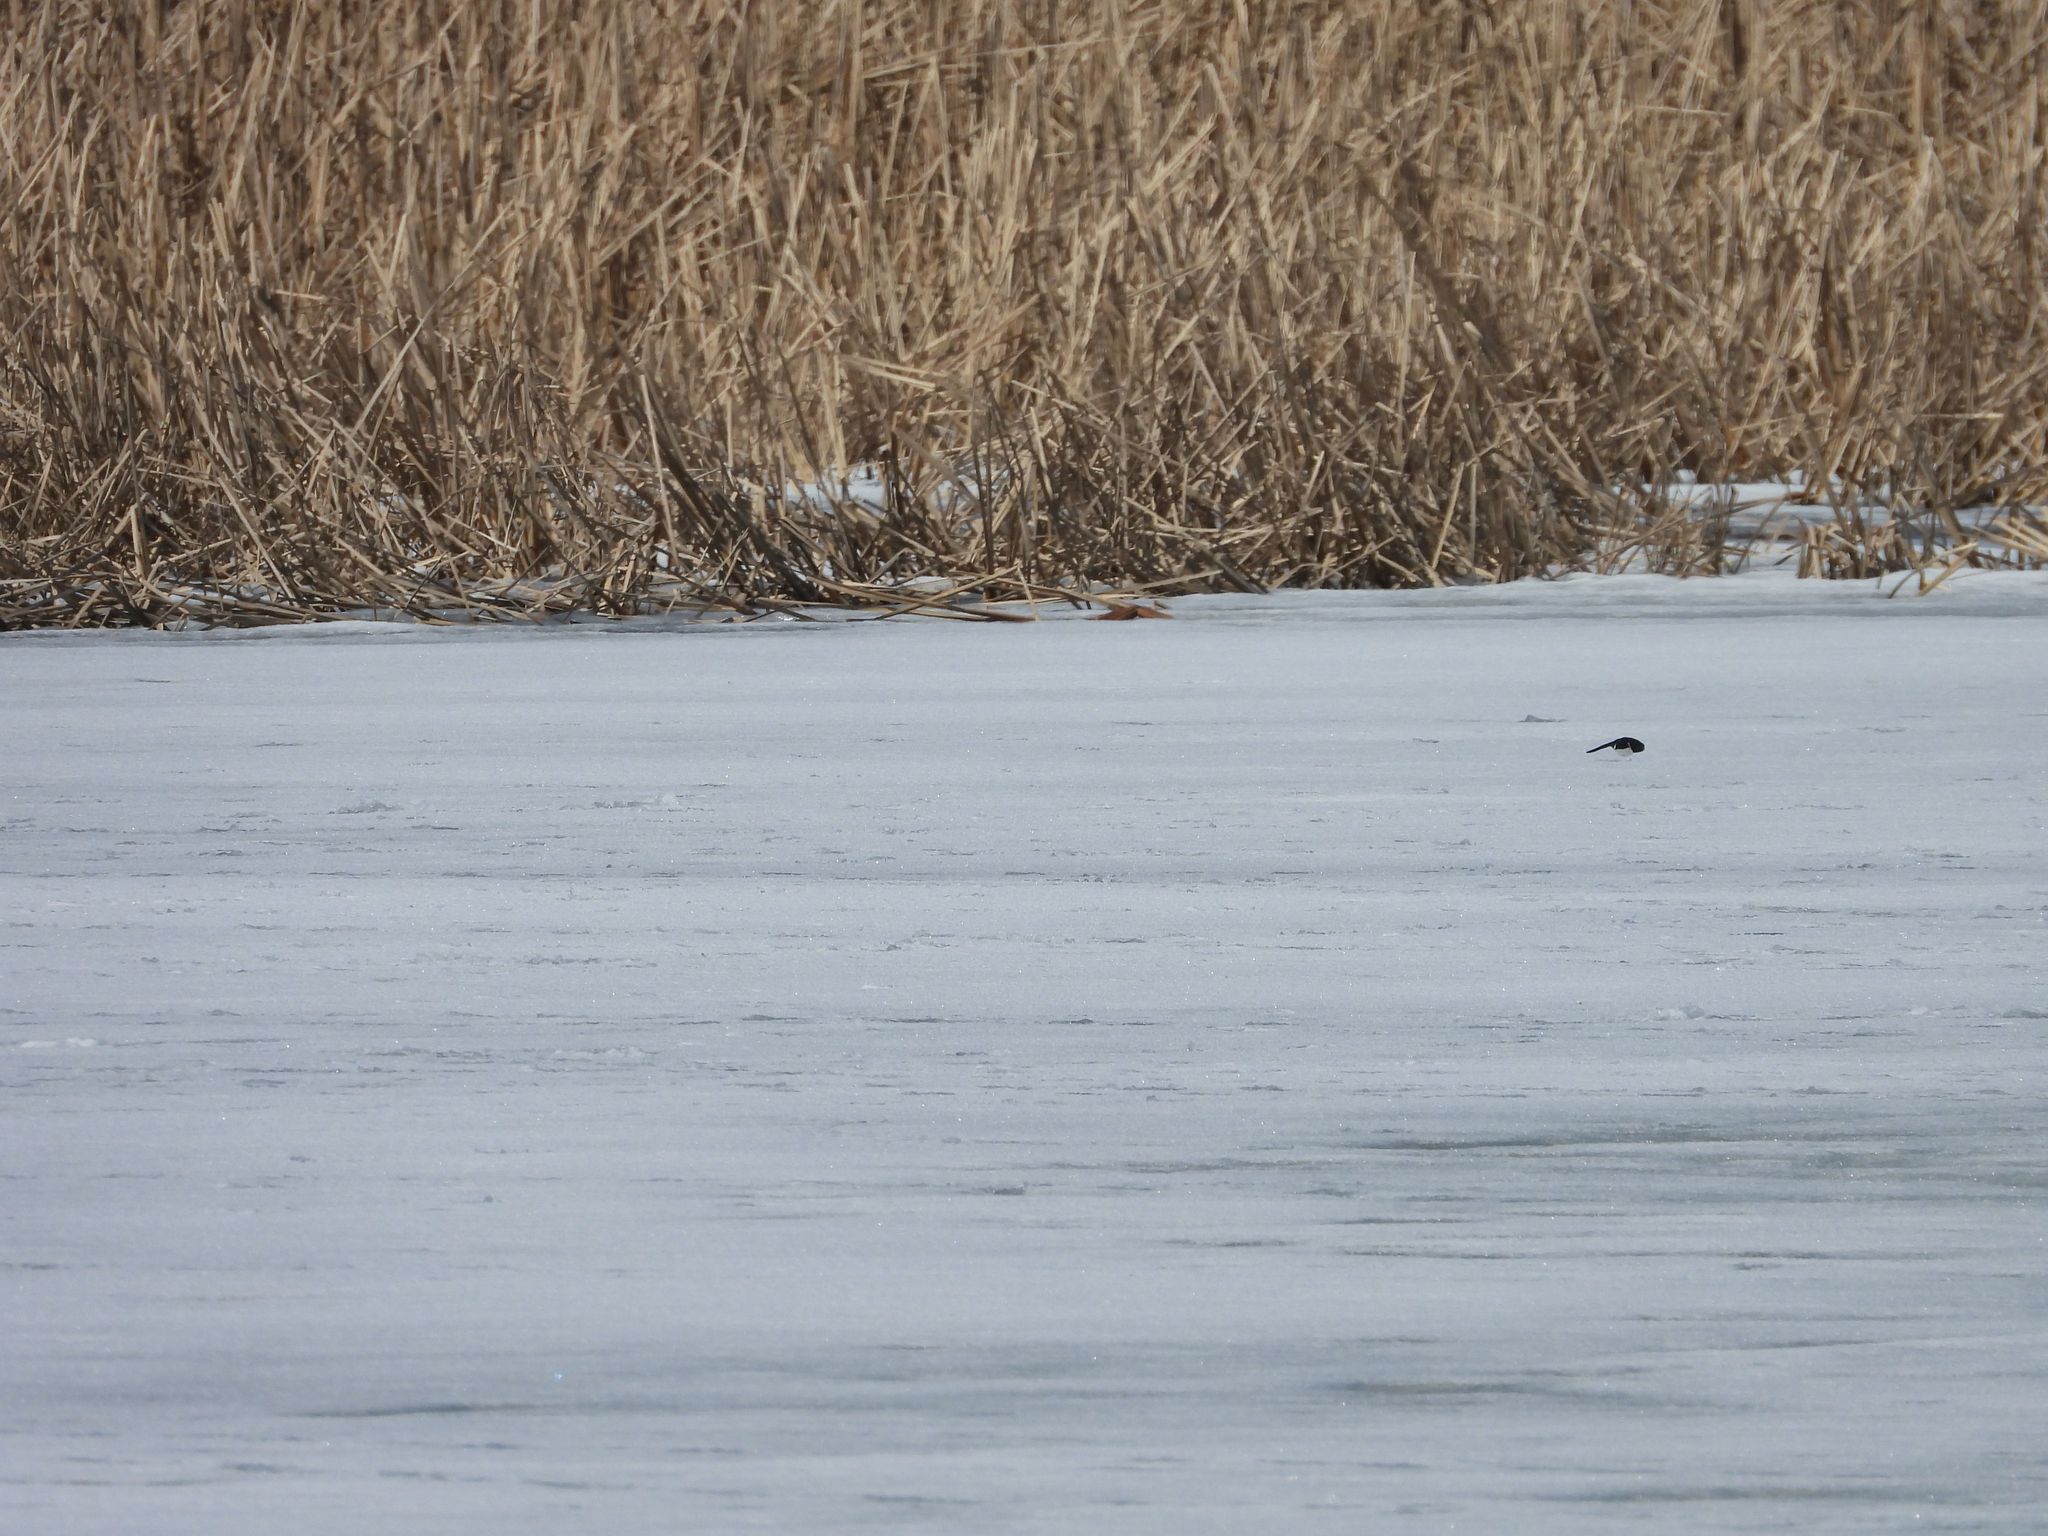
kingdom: Animalia
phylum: Chordata
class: Aves
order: Passeriformes
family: Hirundinidae
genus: Tachycineta
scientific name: Tachycineta bicolor
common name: Tree swallow
